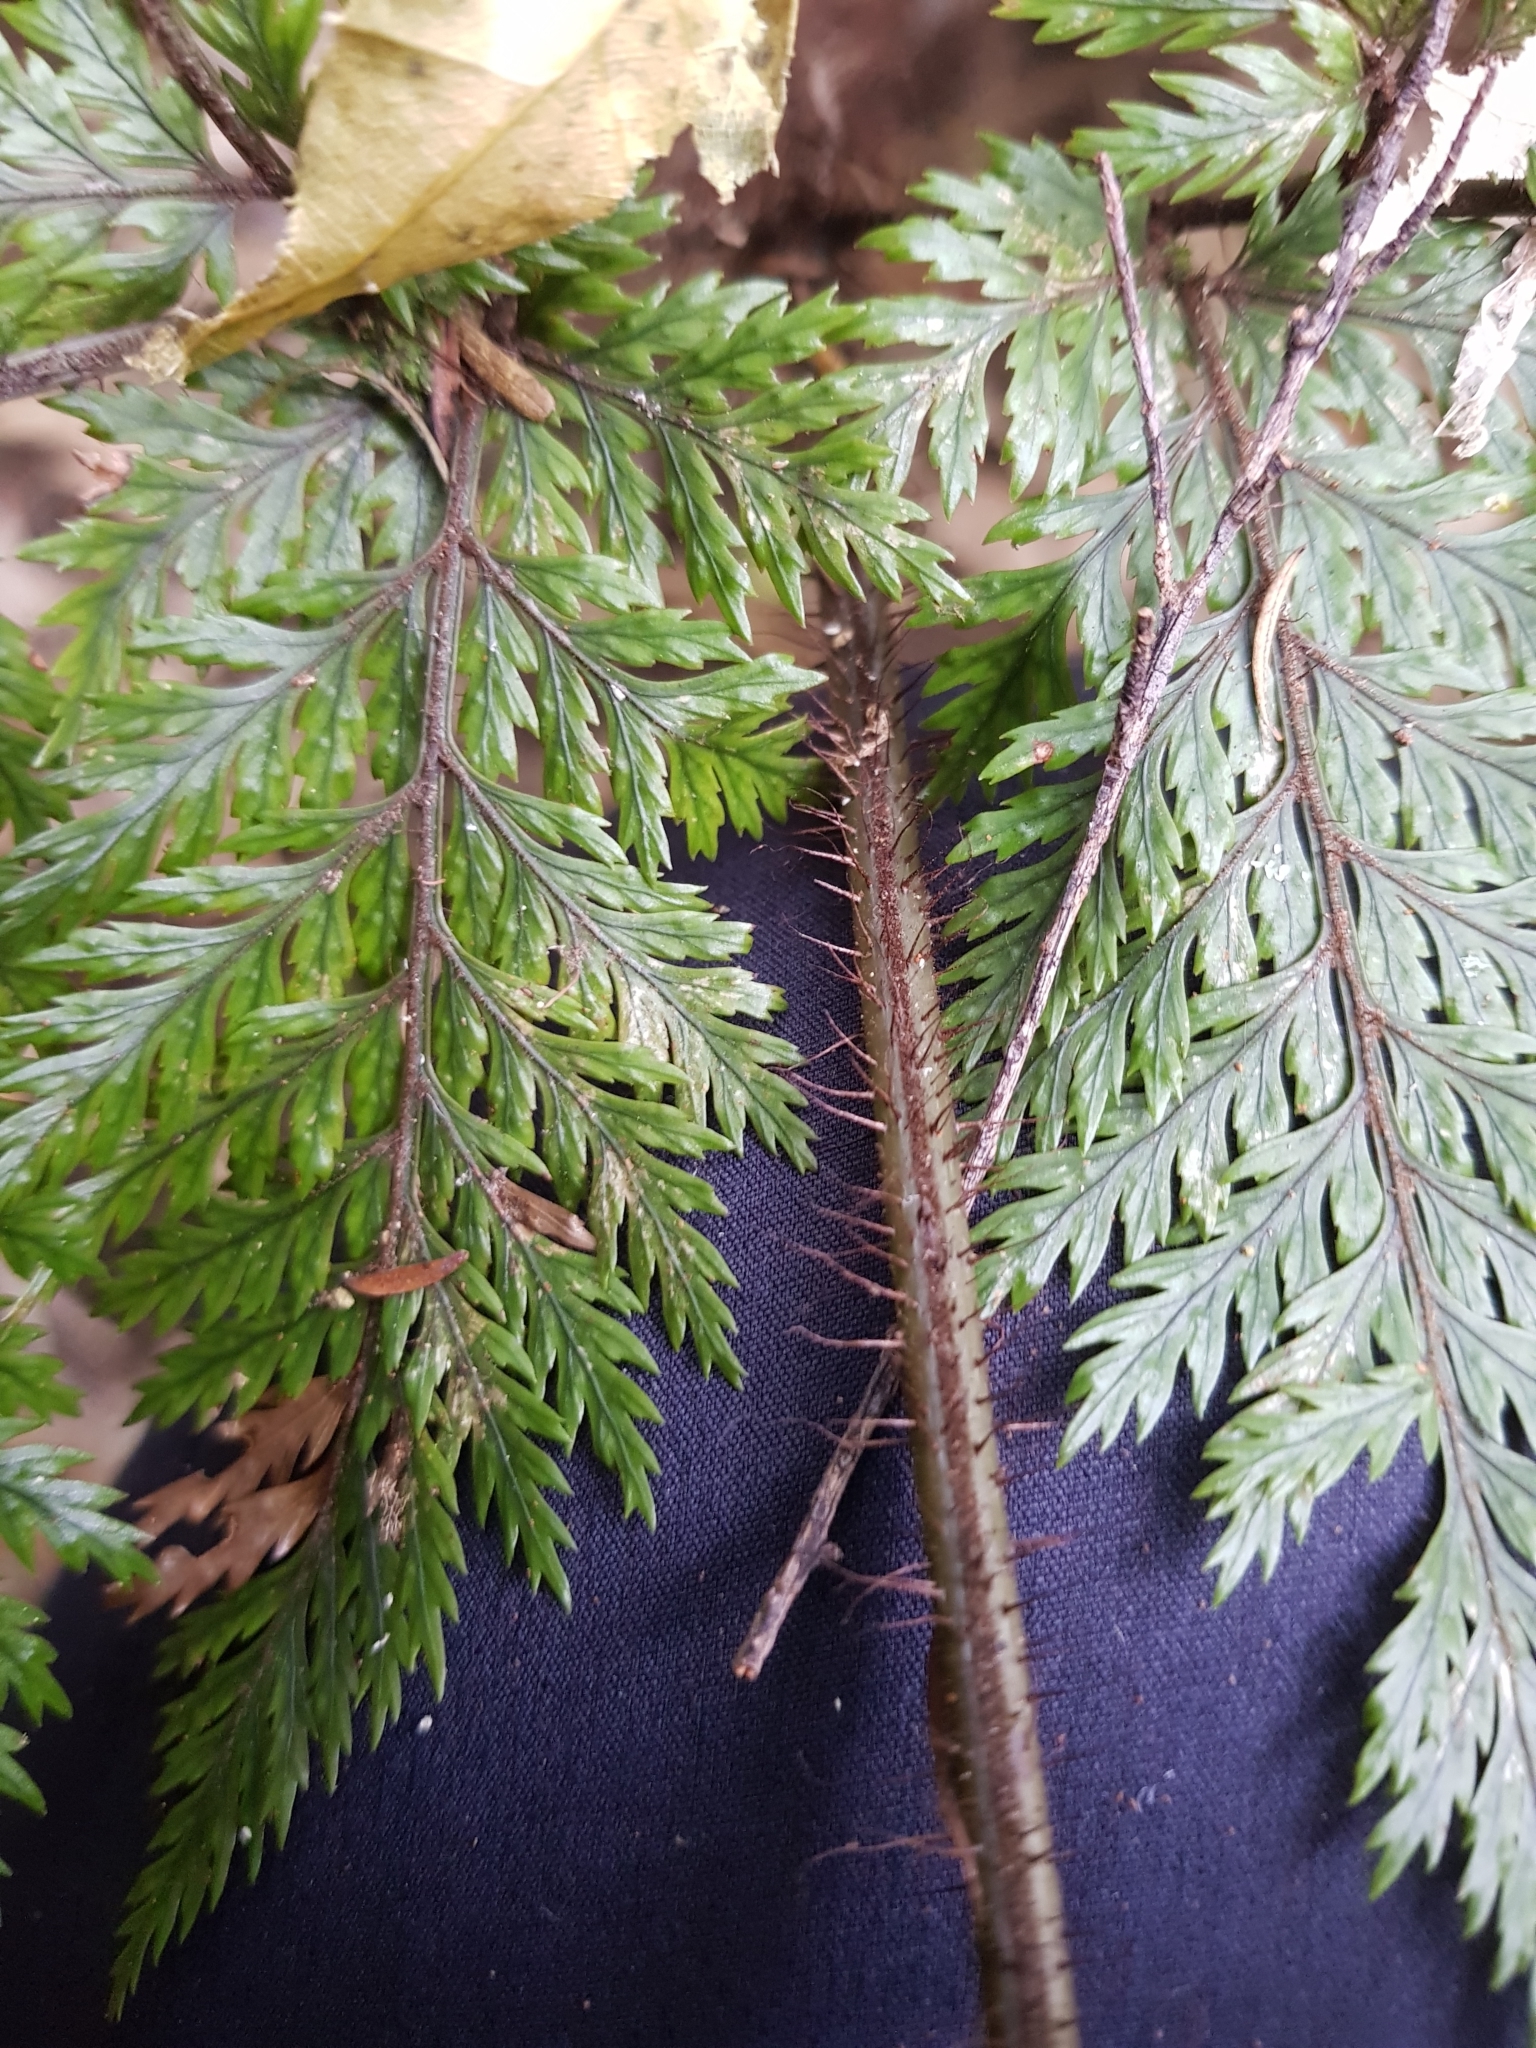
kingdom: Plantae
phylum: Tracheophyta
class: Polypodiopsida
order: Polypodiales
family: Dryopteridaceae
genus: Lastreopsis
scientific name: Lastreopsis hispida
